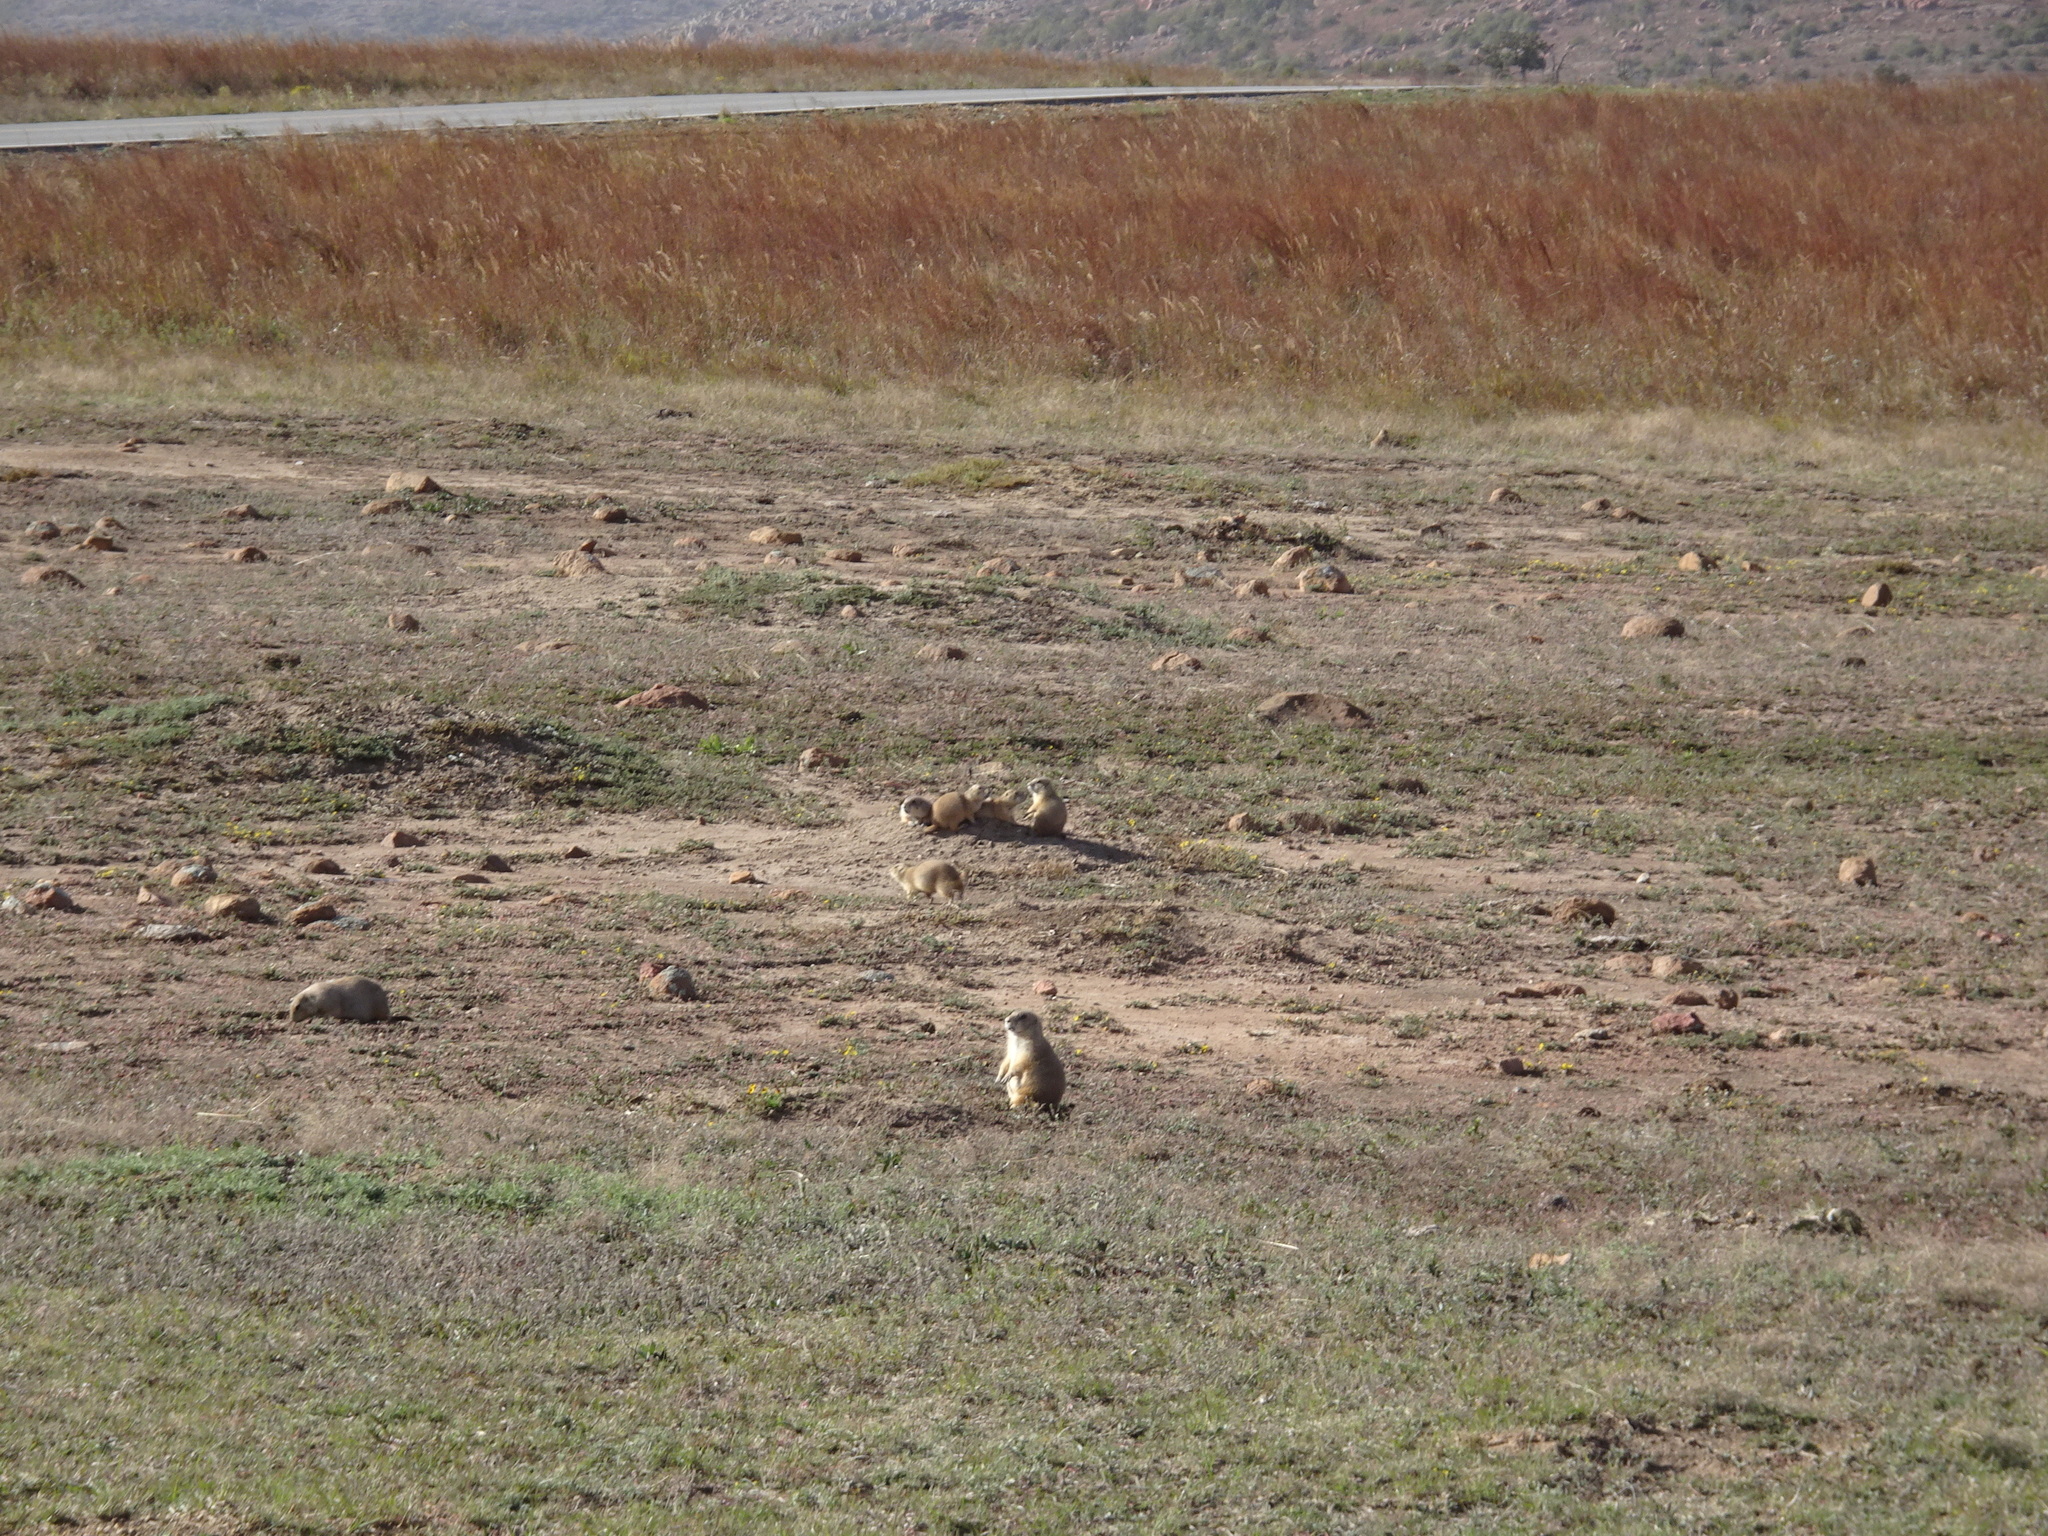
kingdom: Animalia
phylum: Chordata
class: Mammalia
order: Rodentia
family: Sciuridae
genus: Cynomys
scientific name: Cynomys ludovicianus
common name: Black-tailed prairie dog
